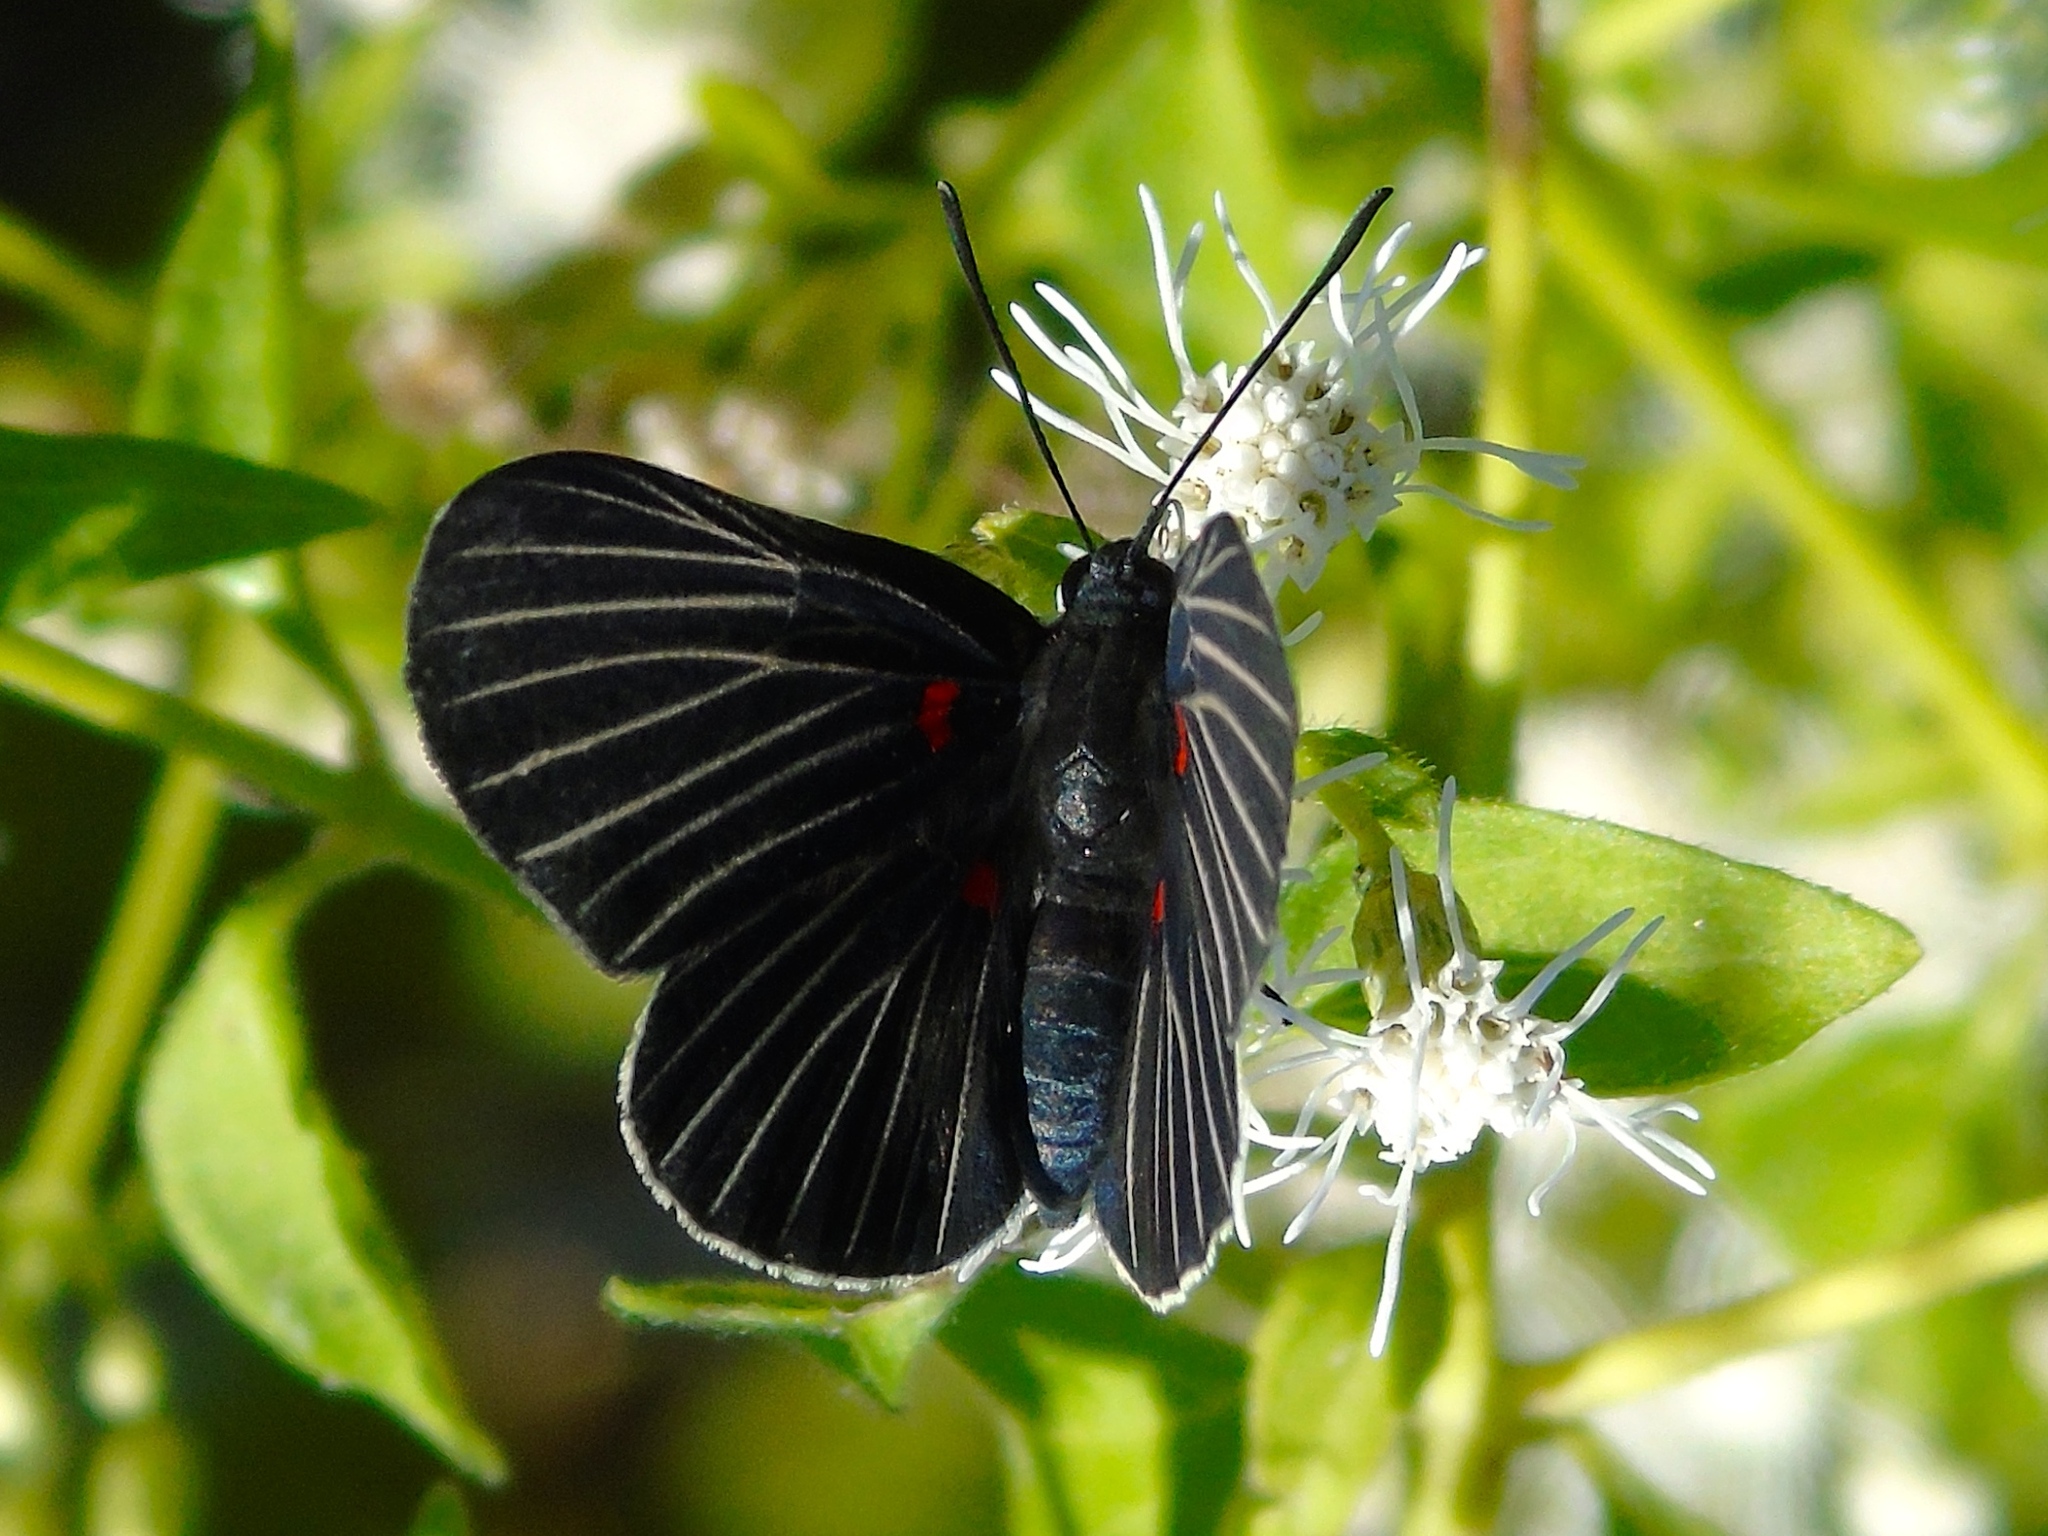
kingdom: Animalia
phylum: Arthropoda
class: Insecta
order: Lepidoptera
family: Lycaenidae
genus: Melanis
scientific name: Melanis
